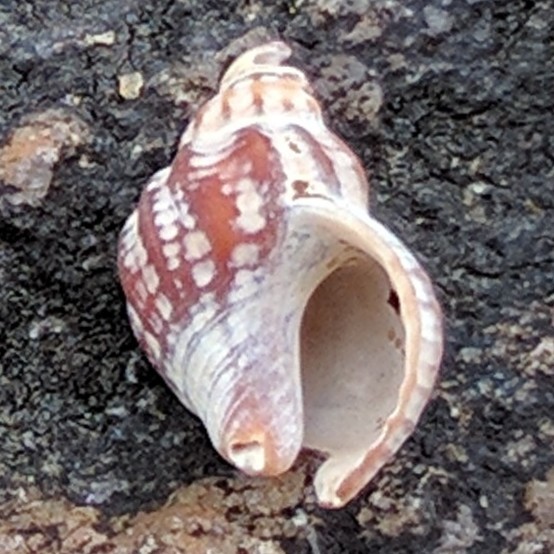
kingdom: Animalia
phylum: Mollusca
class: Gastropoda
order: Neogastropoda
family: Muricidae
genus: Urosalpinx
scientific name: Urosalpinx cinerea
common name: American sting winkle
